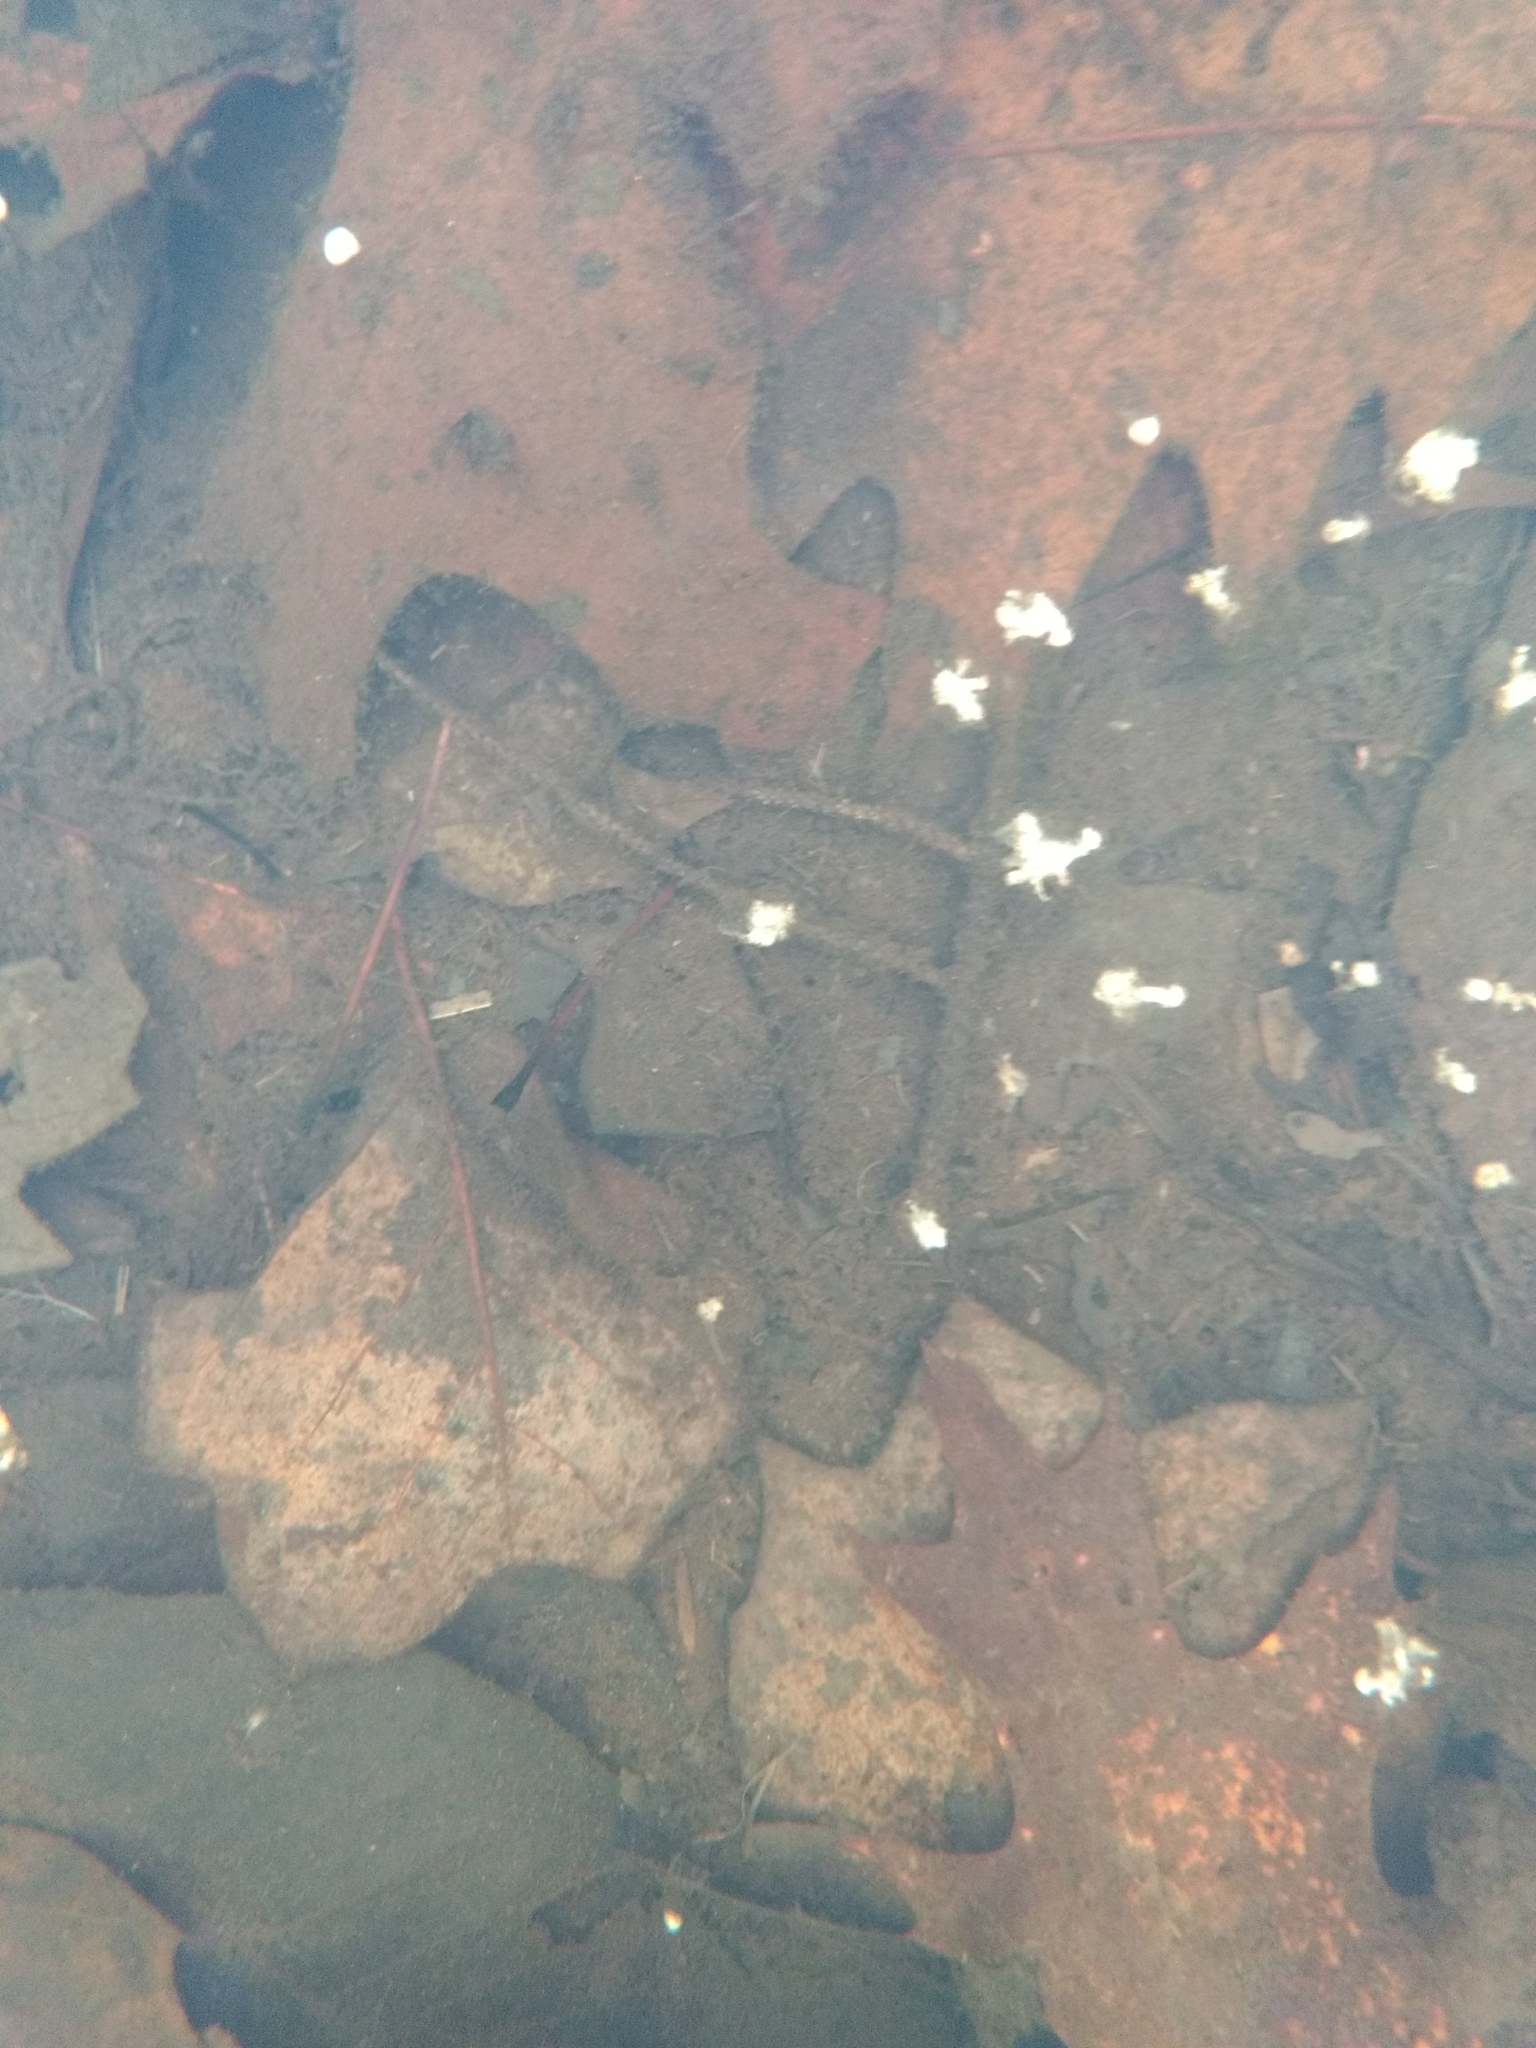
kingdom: Animalia
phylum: Chordata
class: Amphibia
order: Caudata
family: Ambystomatidae
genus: Ambystoma
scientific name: Ambystoma maculatum
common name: Spotted salamander
